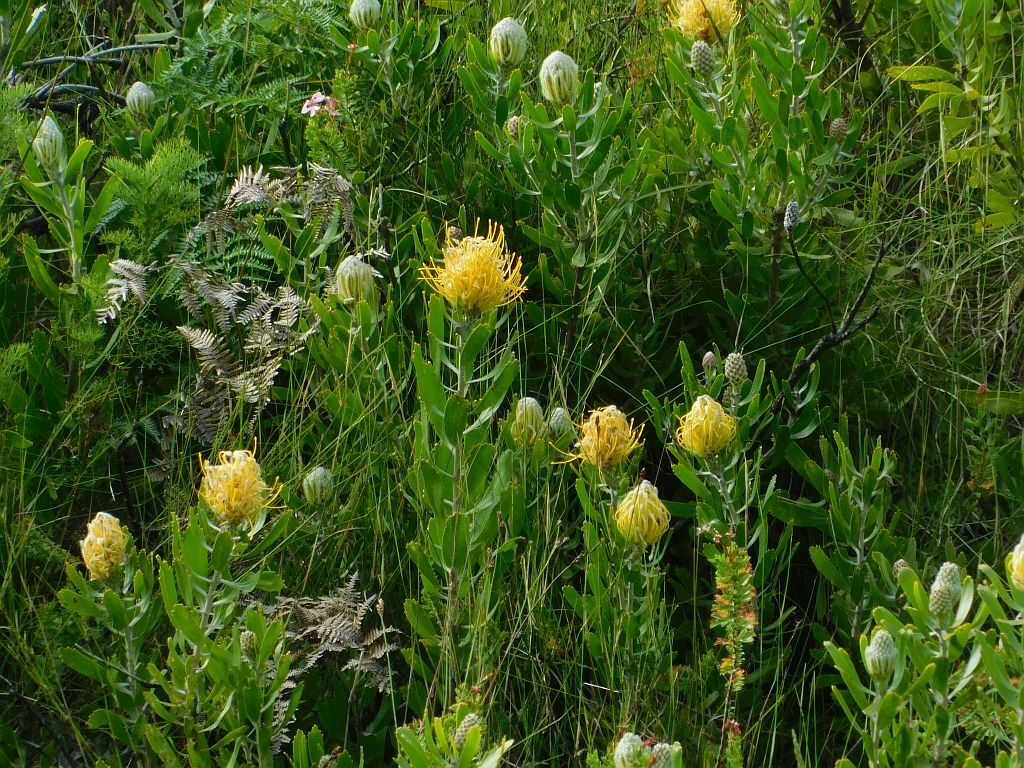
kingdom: Plantae
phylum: Tracheophyta
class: Magnoliopsida
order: Proteales
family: Proteaceae
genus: Leucospermum
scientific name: Leucospermum cuneiforme
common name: Common pincushion
